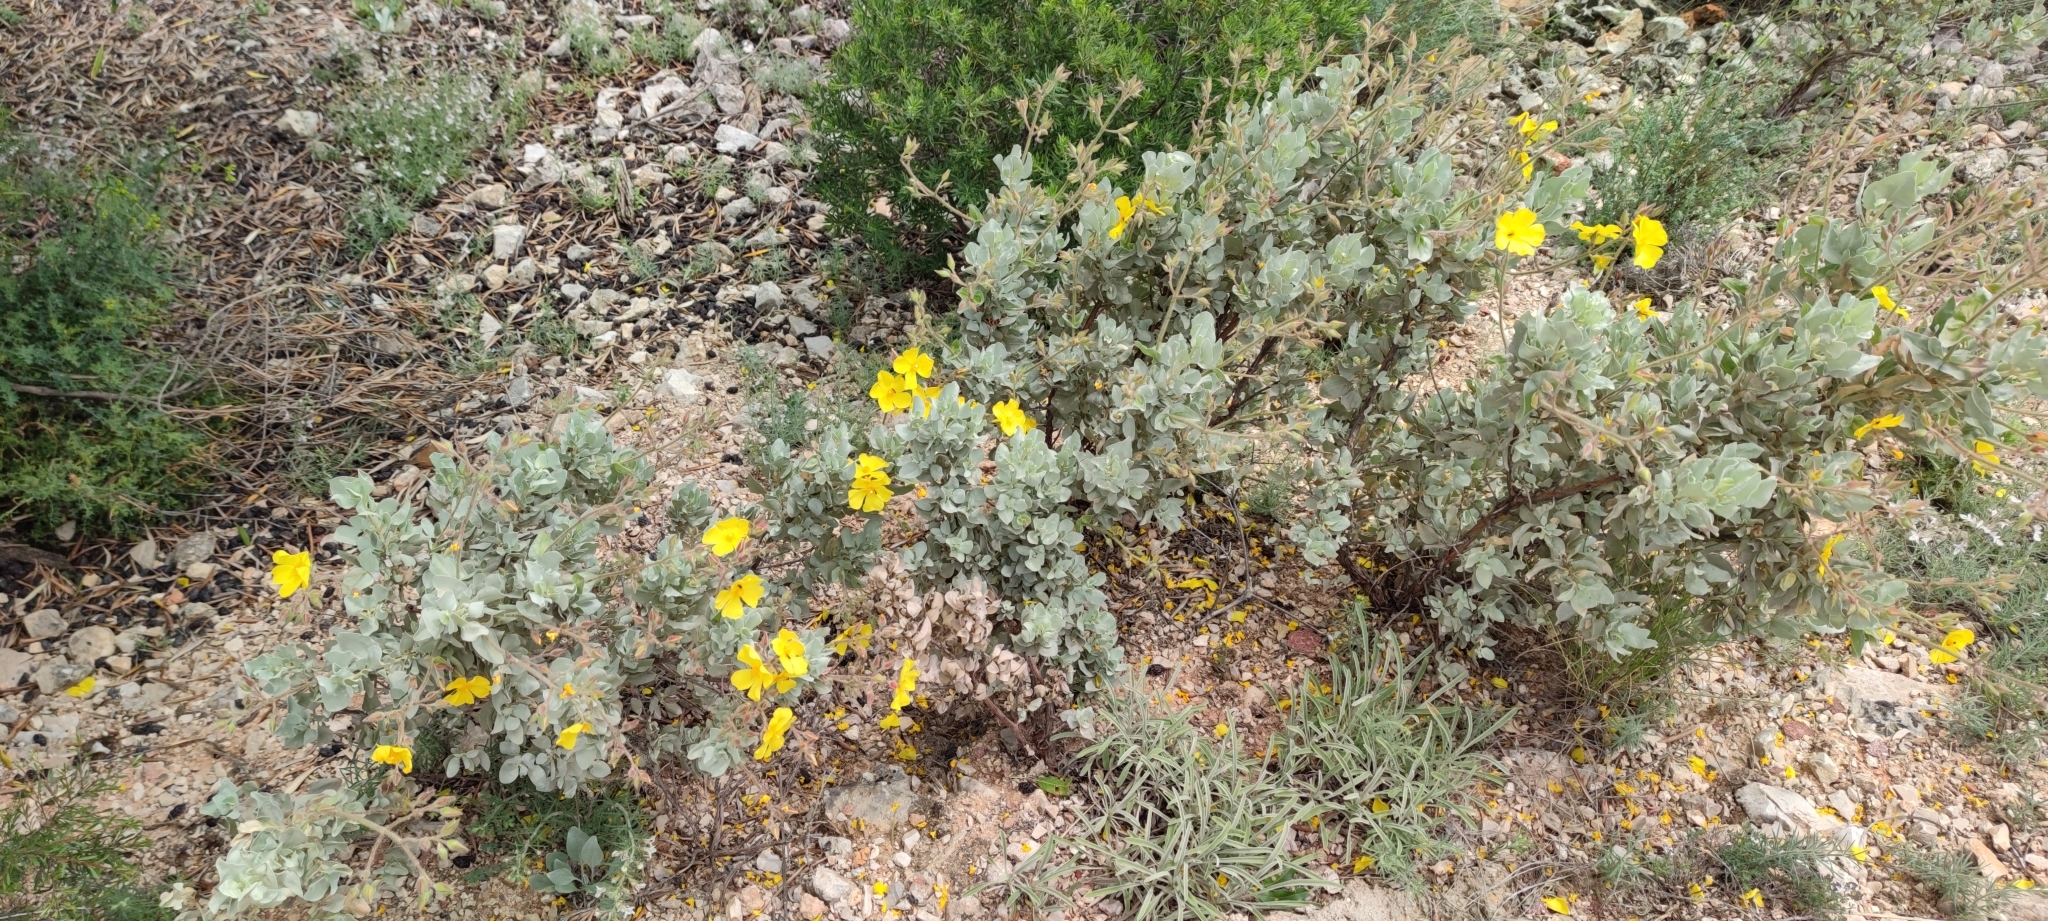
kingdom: Plantae
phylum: Tracheophyta
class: Magnoliopsida
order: Malvales
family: Cistaceae
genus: Halimium
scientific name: Halimium atriplicifolium
